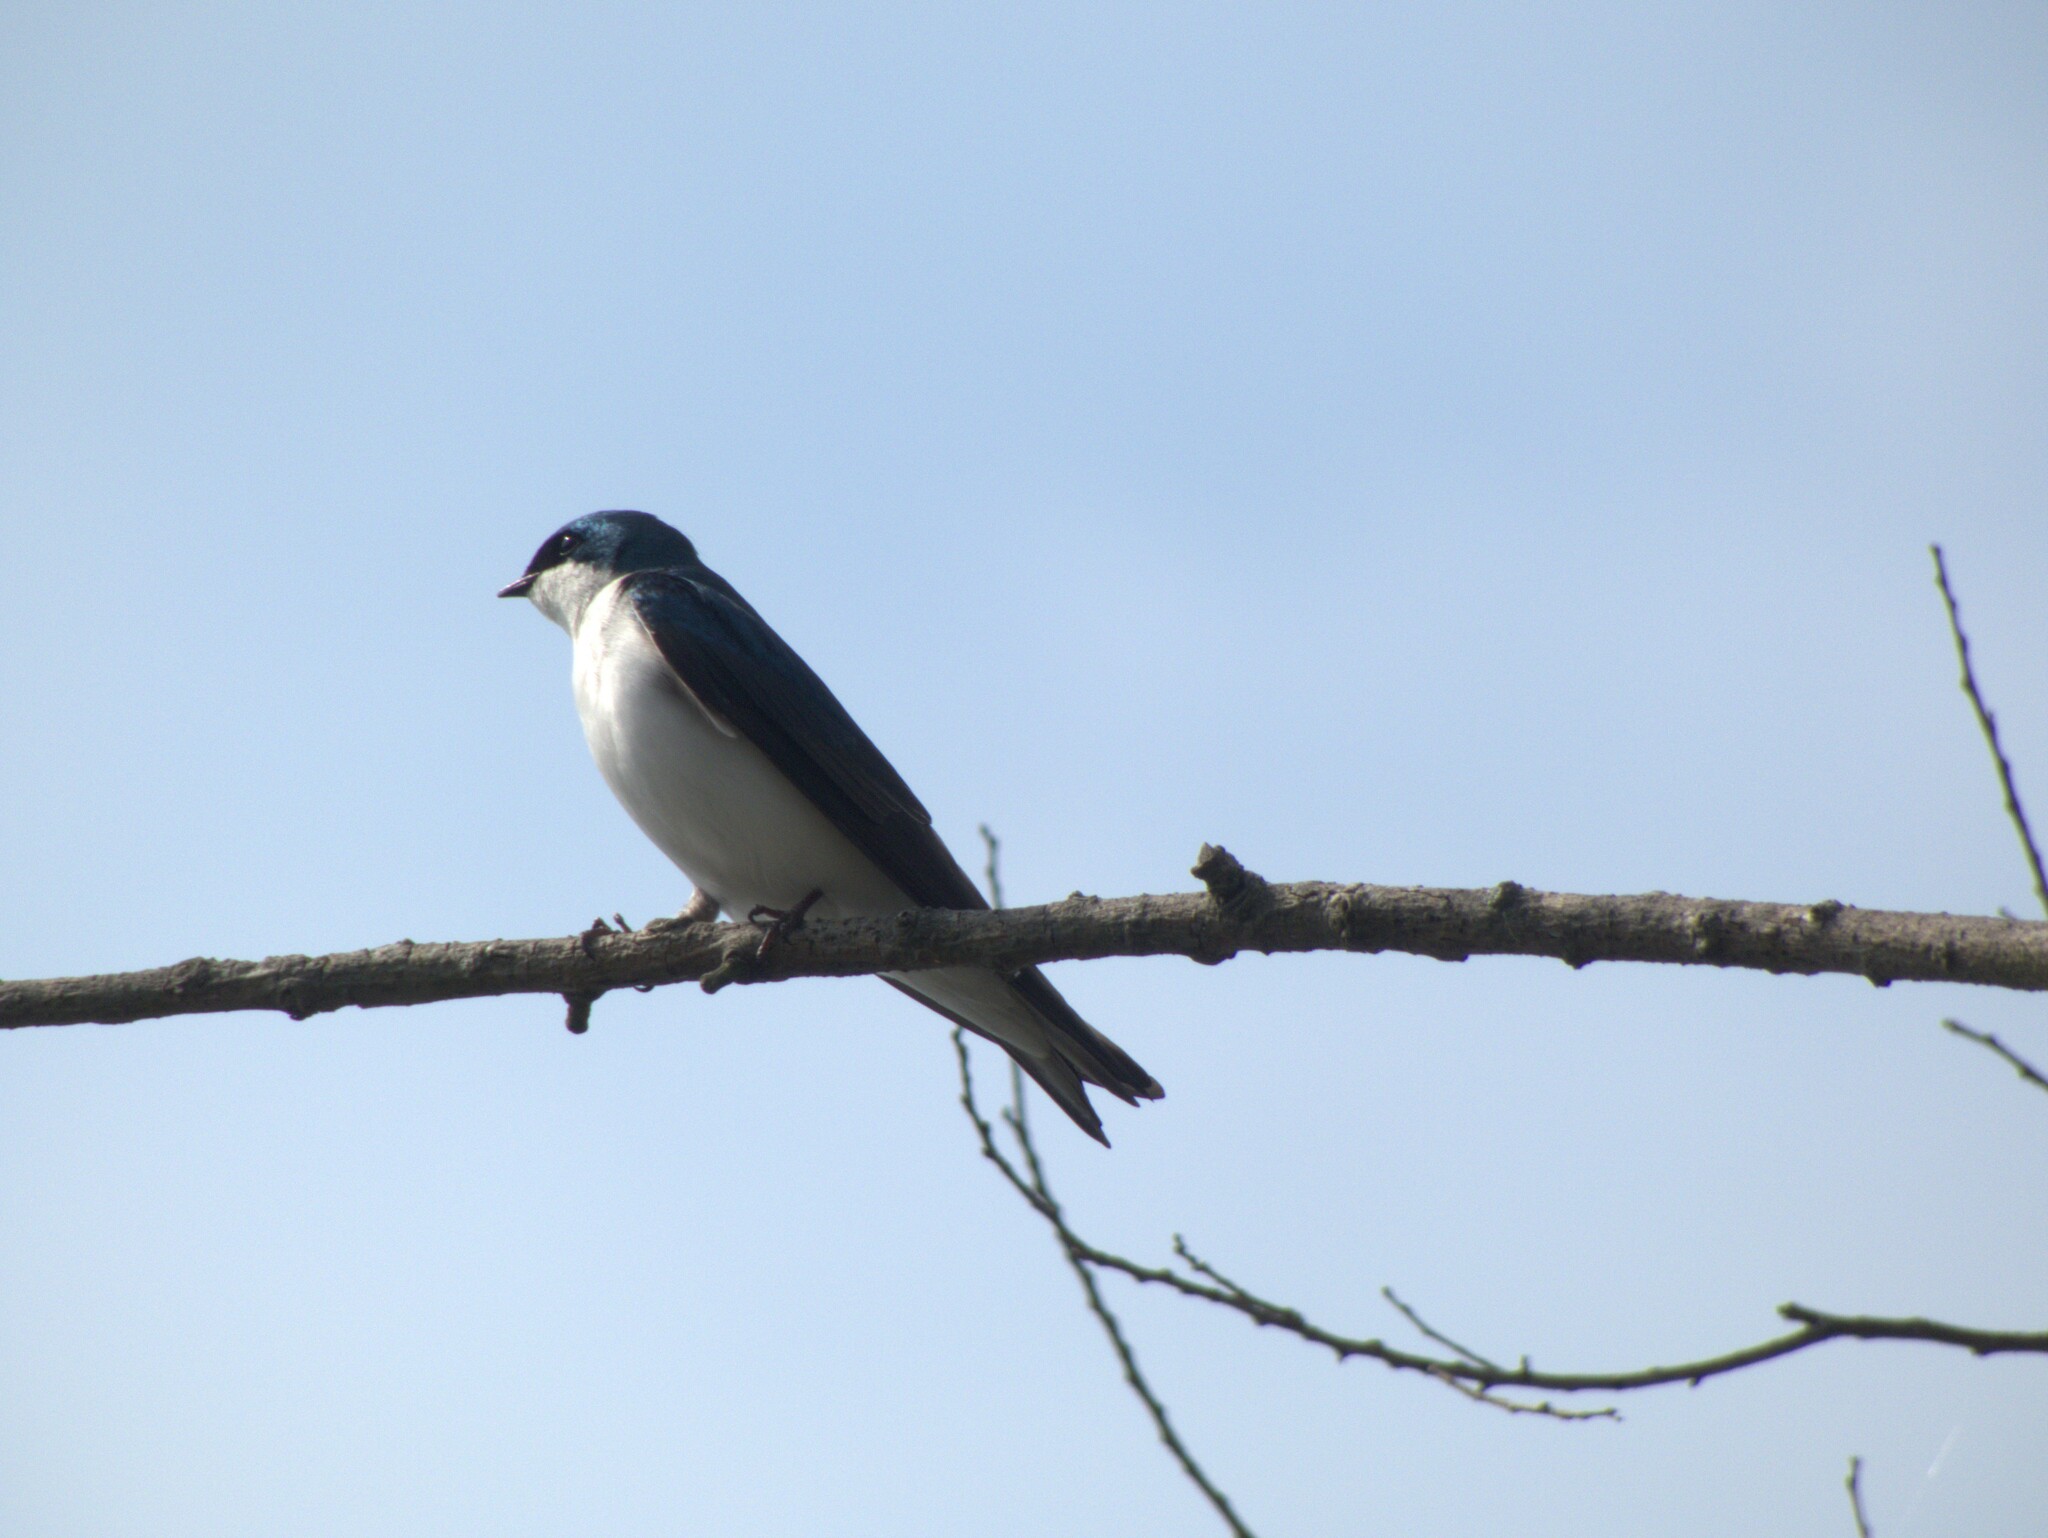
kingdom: Animalia
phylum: Chordata
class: Aves
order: Passeriformes
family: Hirundinidae
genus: Tachycineta
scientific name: Tachycineta bicolor
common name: Tree swallow
